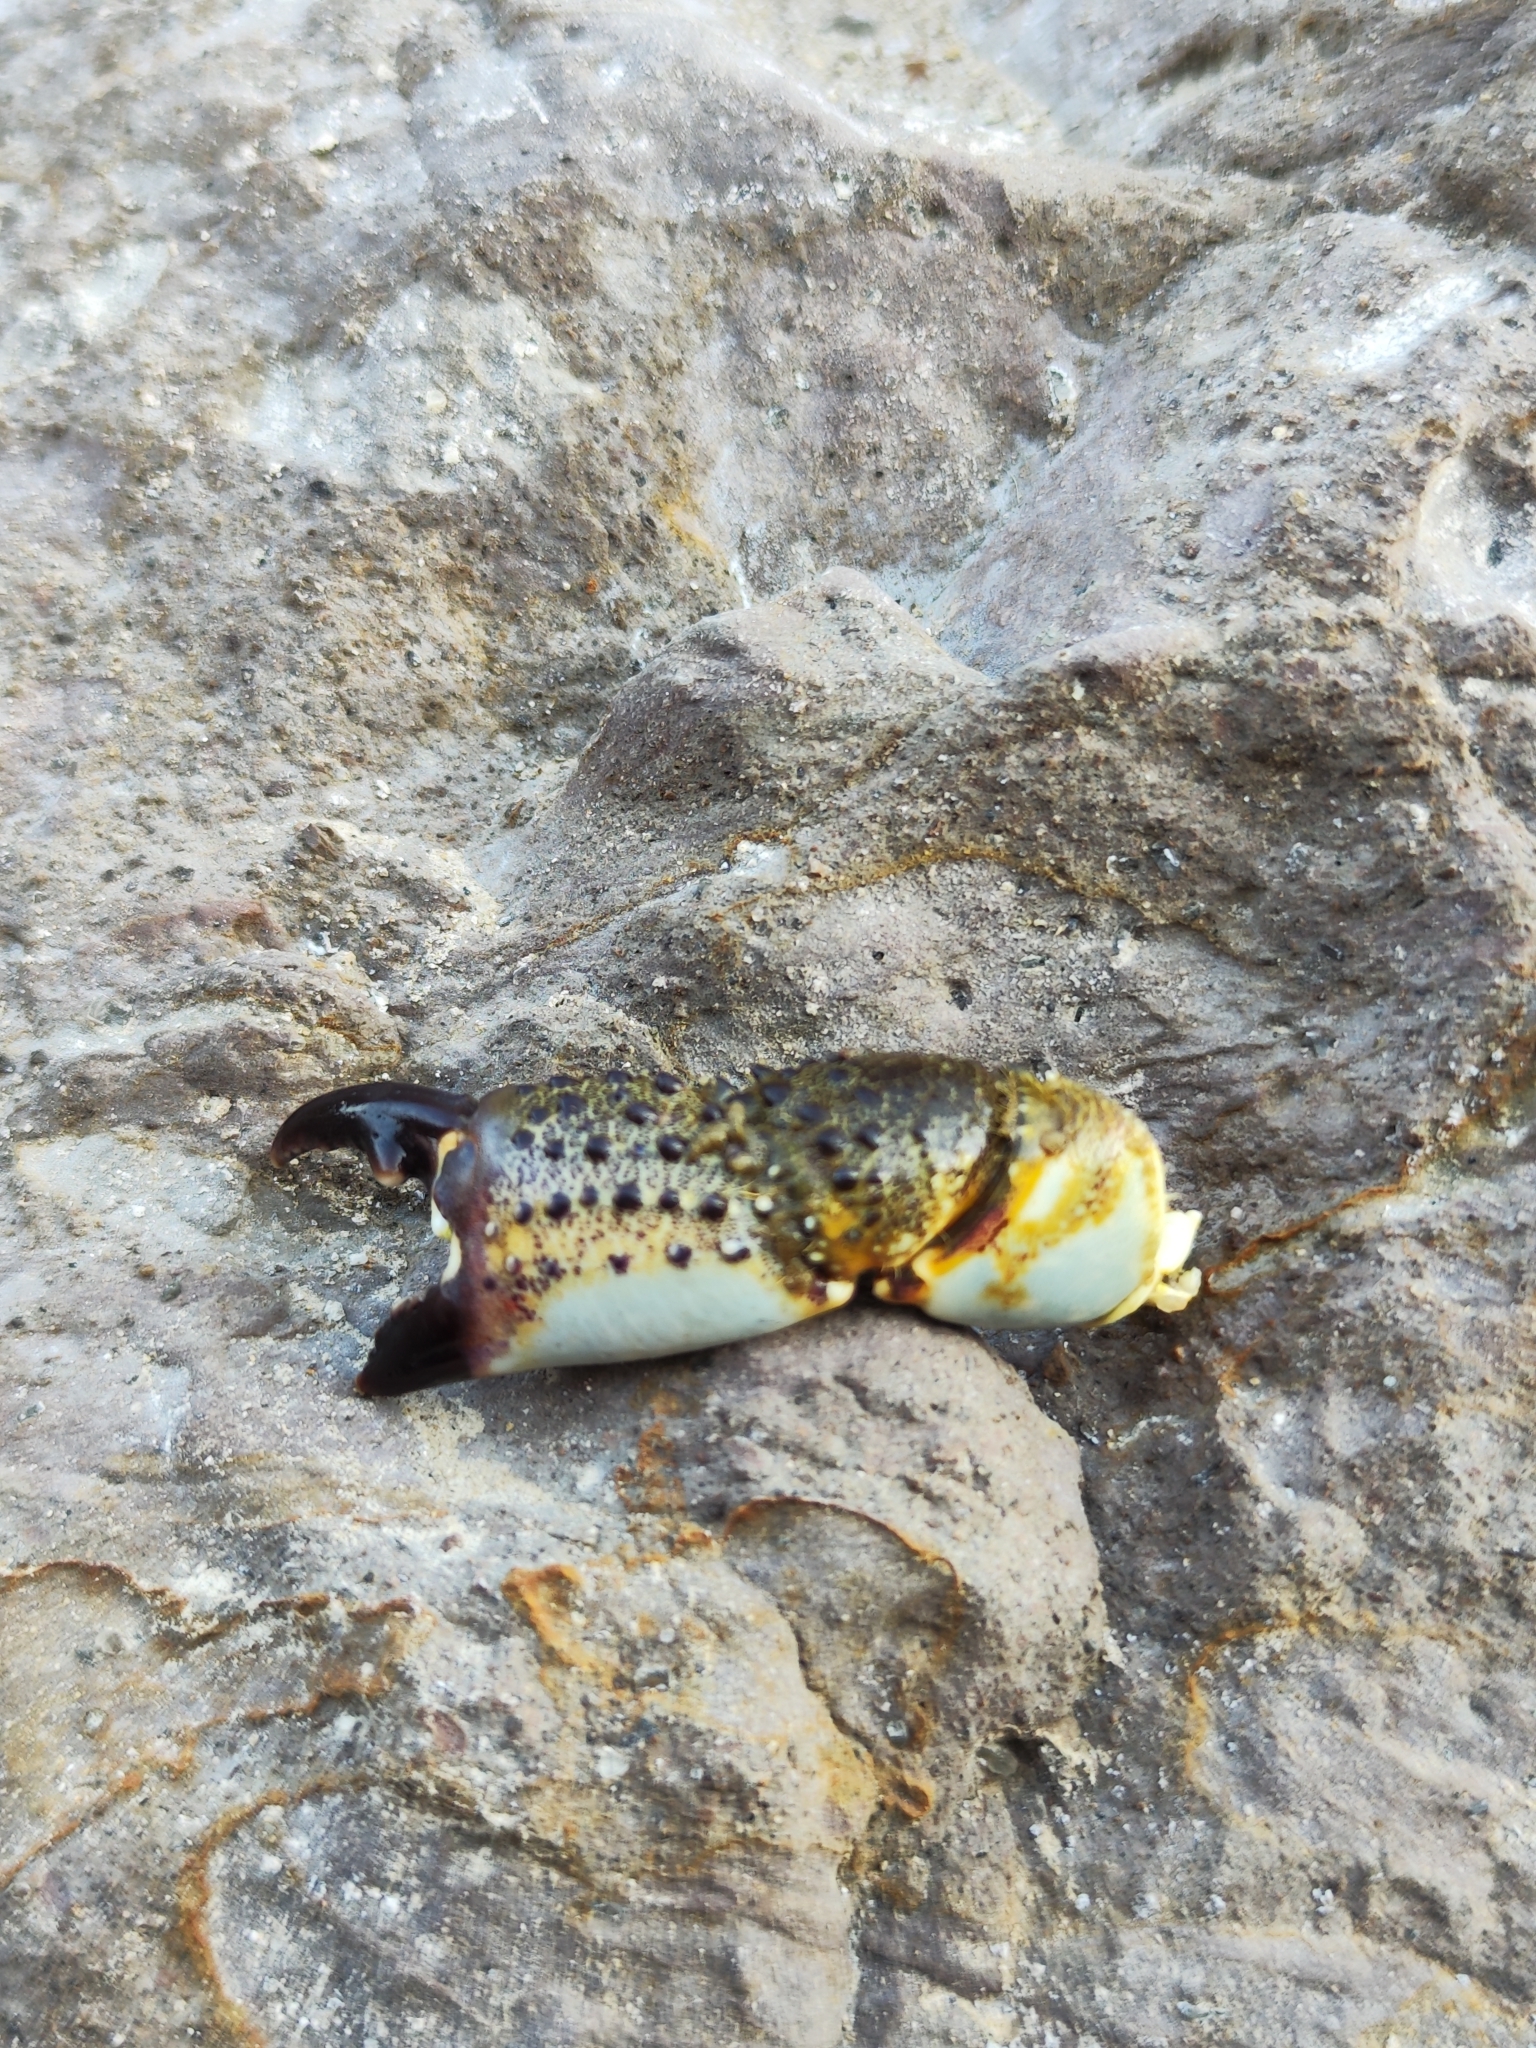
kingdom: Animalia
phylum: Arthropoda
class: Malacostraca
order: Decapoda
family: Eriphiidae
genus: Eriphia
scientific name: Eriphia verrucosa
